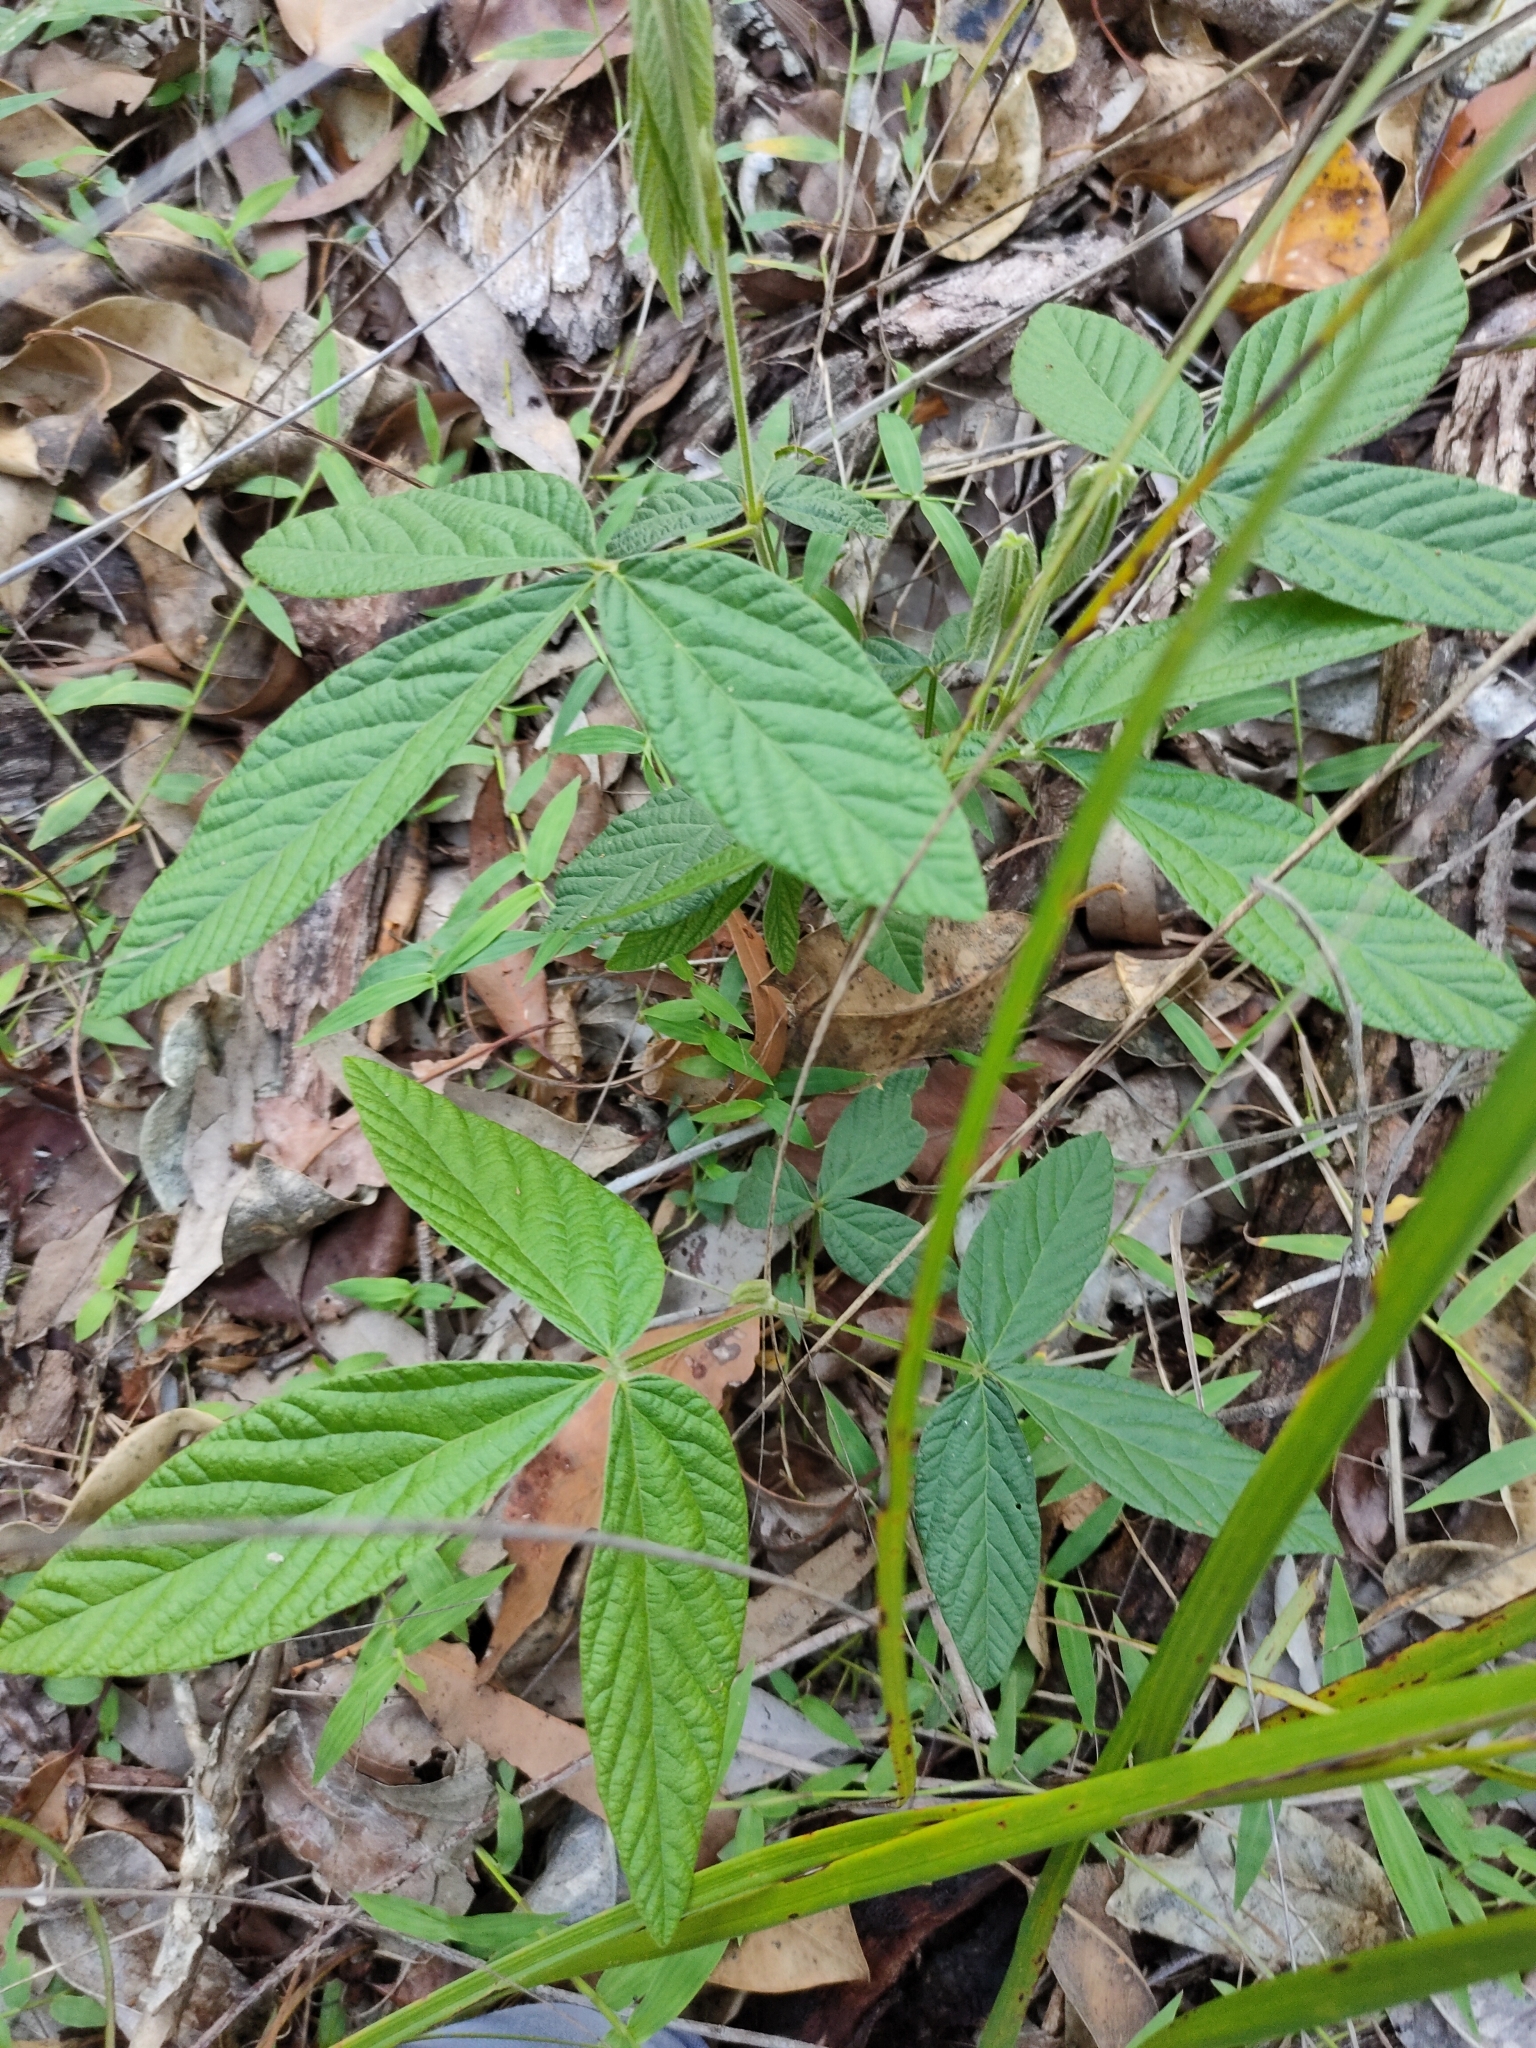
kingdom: Plantae
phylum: Tracheophyta
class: Magnoliopsida
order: Fabales
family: Fabaceae
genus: Flemingia
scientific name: Flemingia parviflora
